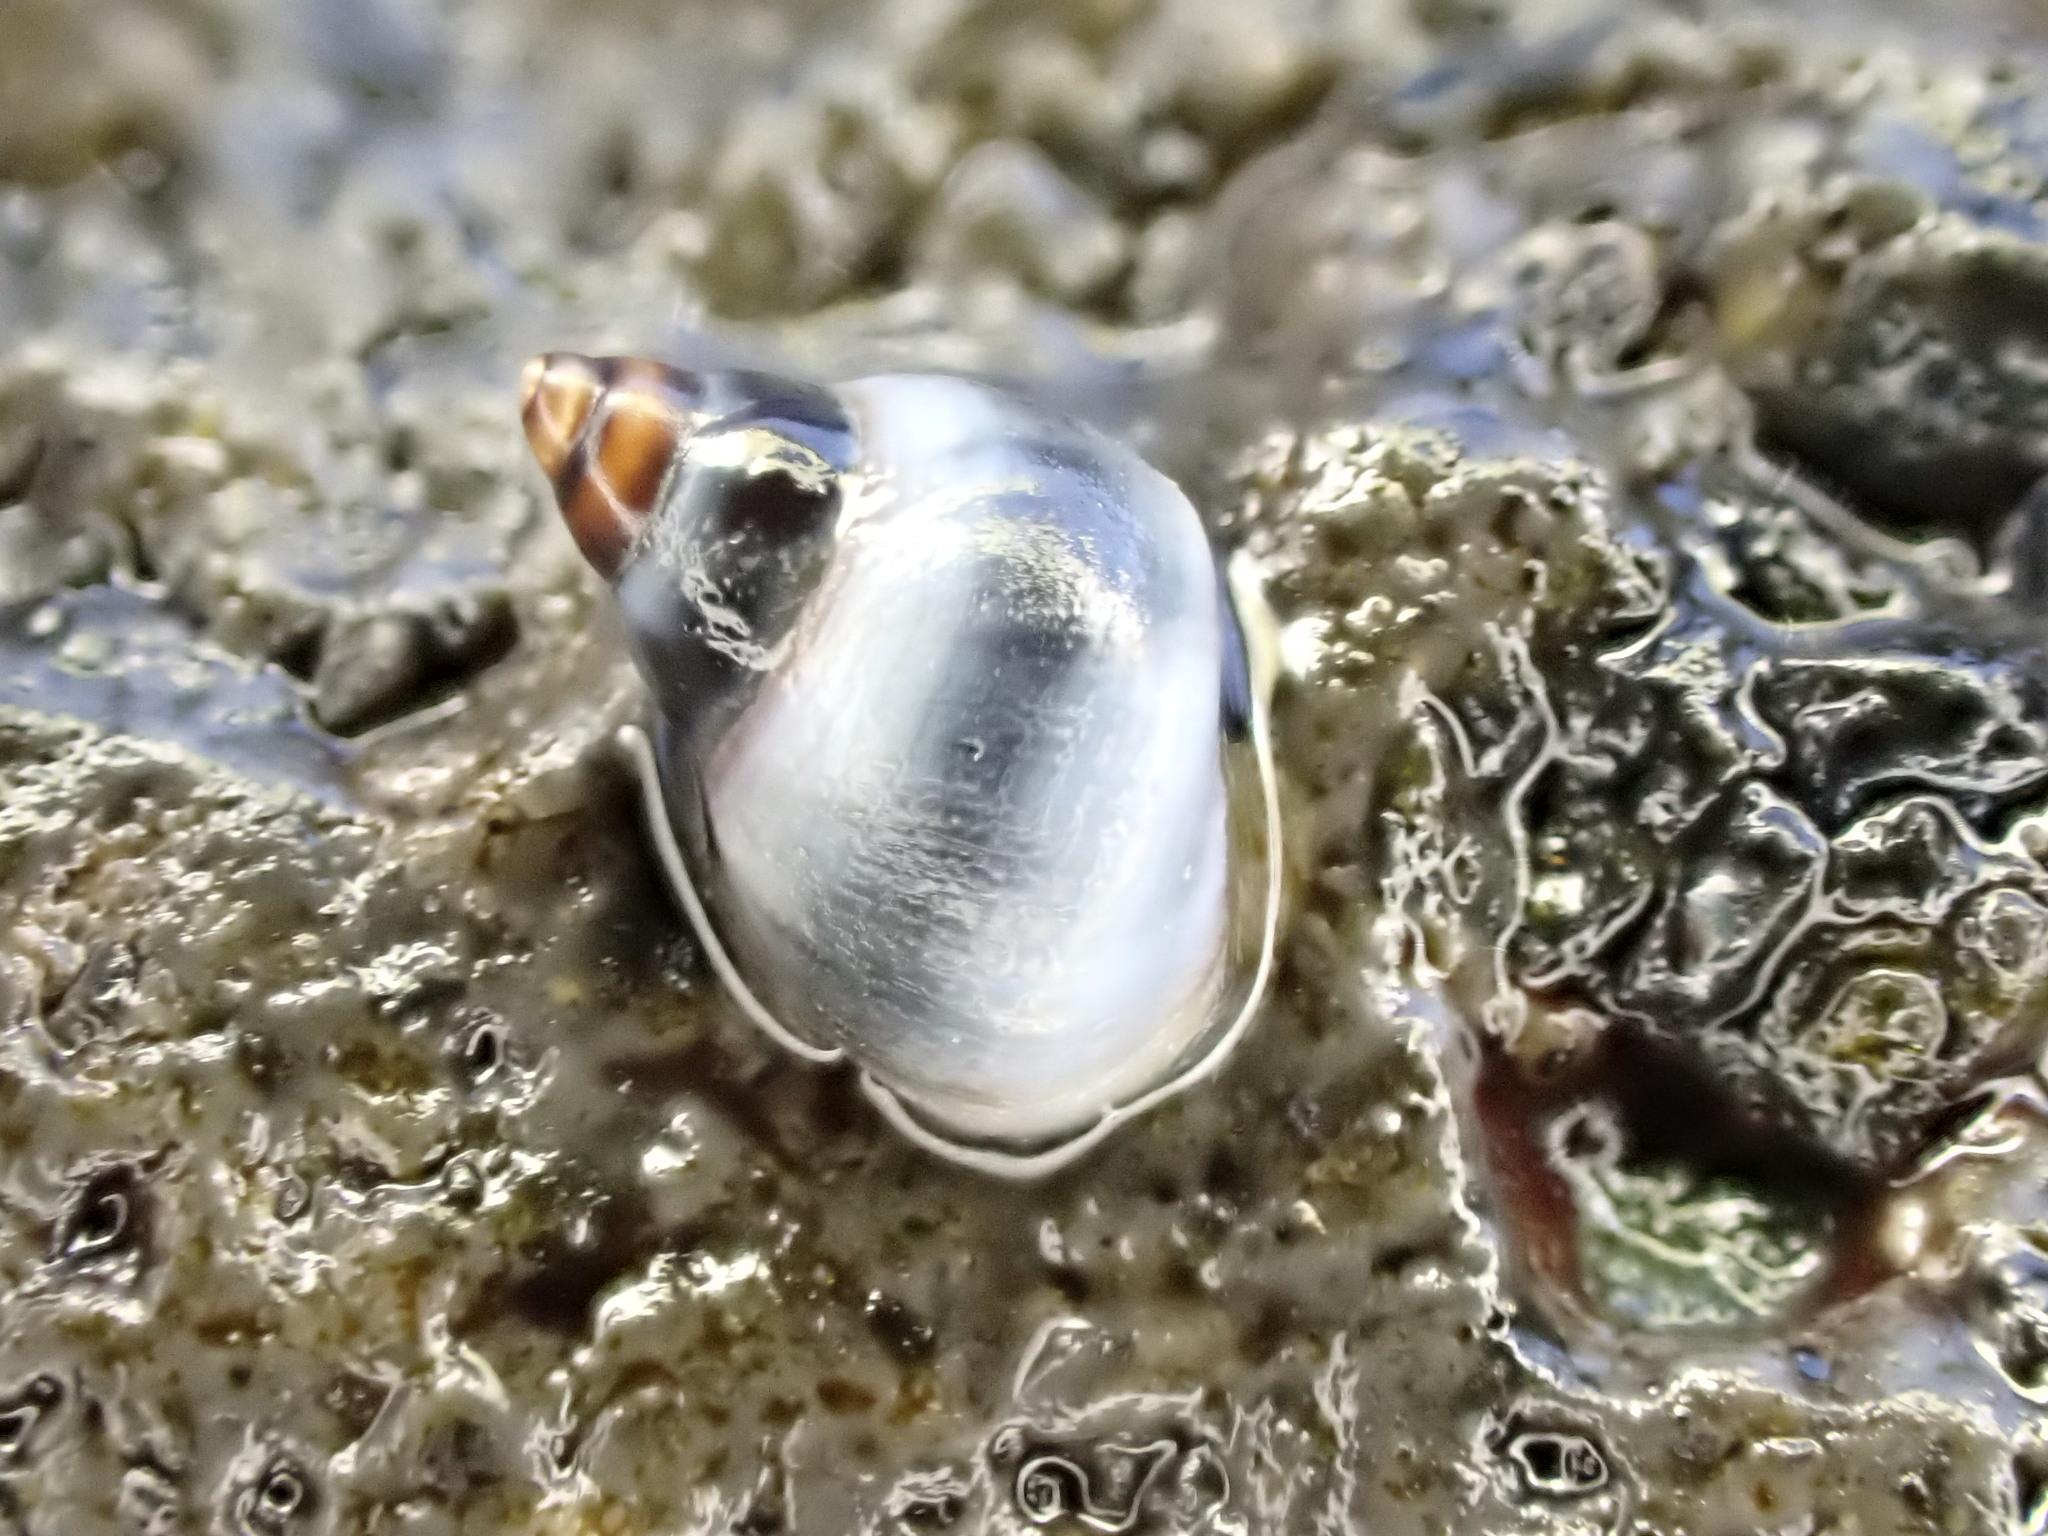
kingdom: Animalia
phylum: Mollusca
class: Gastropoda
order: Littorinimorpha
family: Littorinidae
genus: Austrolittorina
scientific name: Austrolittorina antipodum
